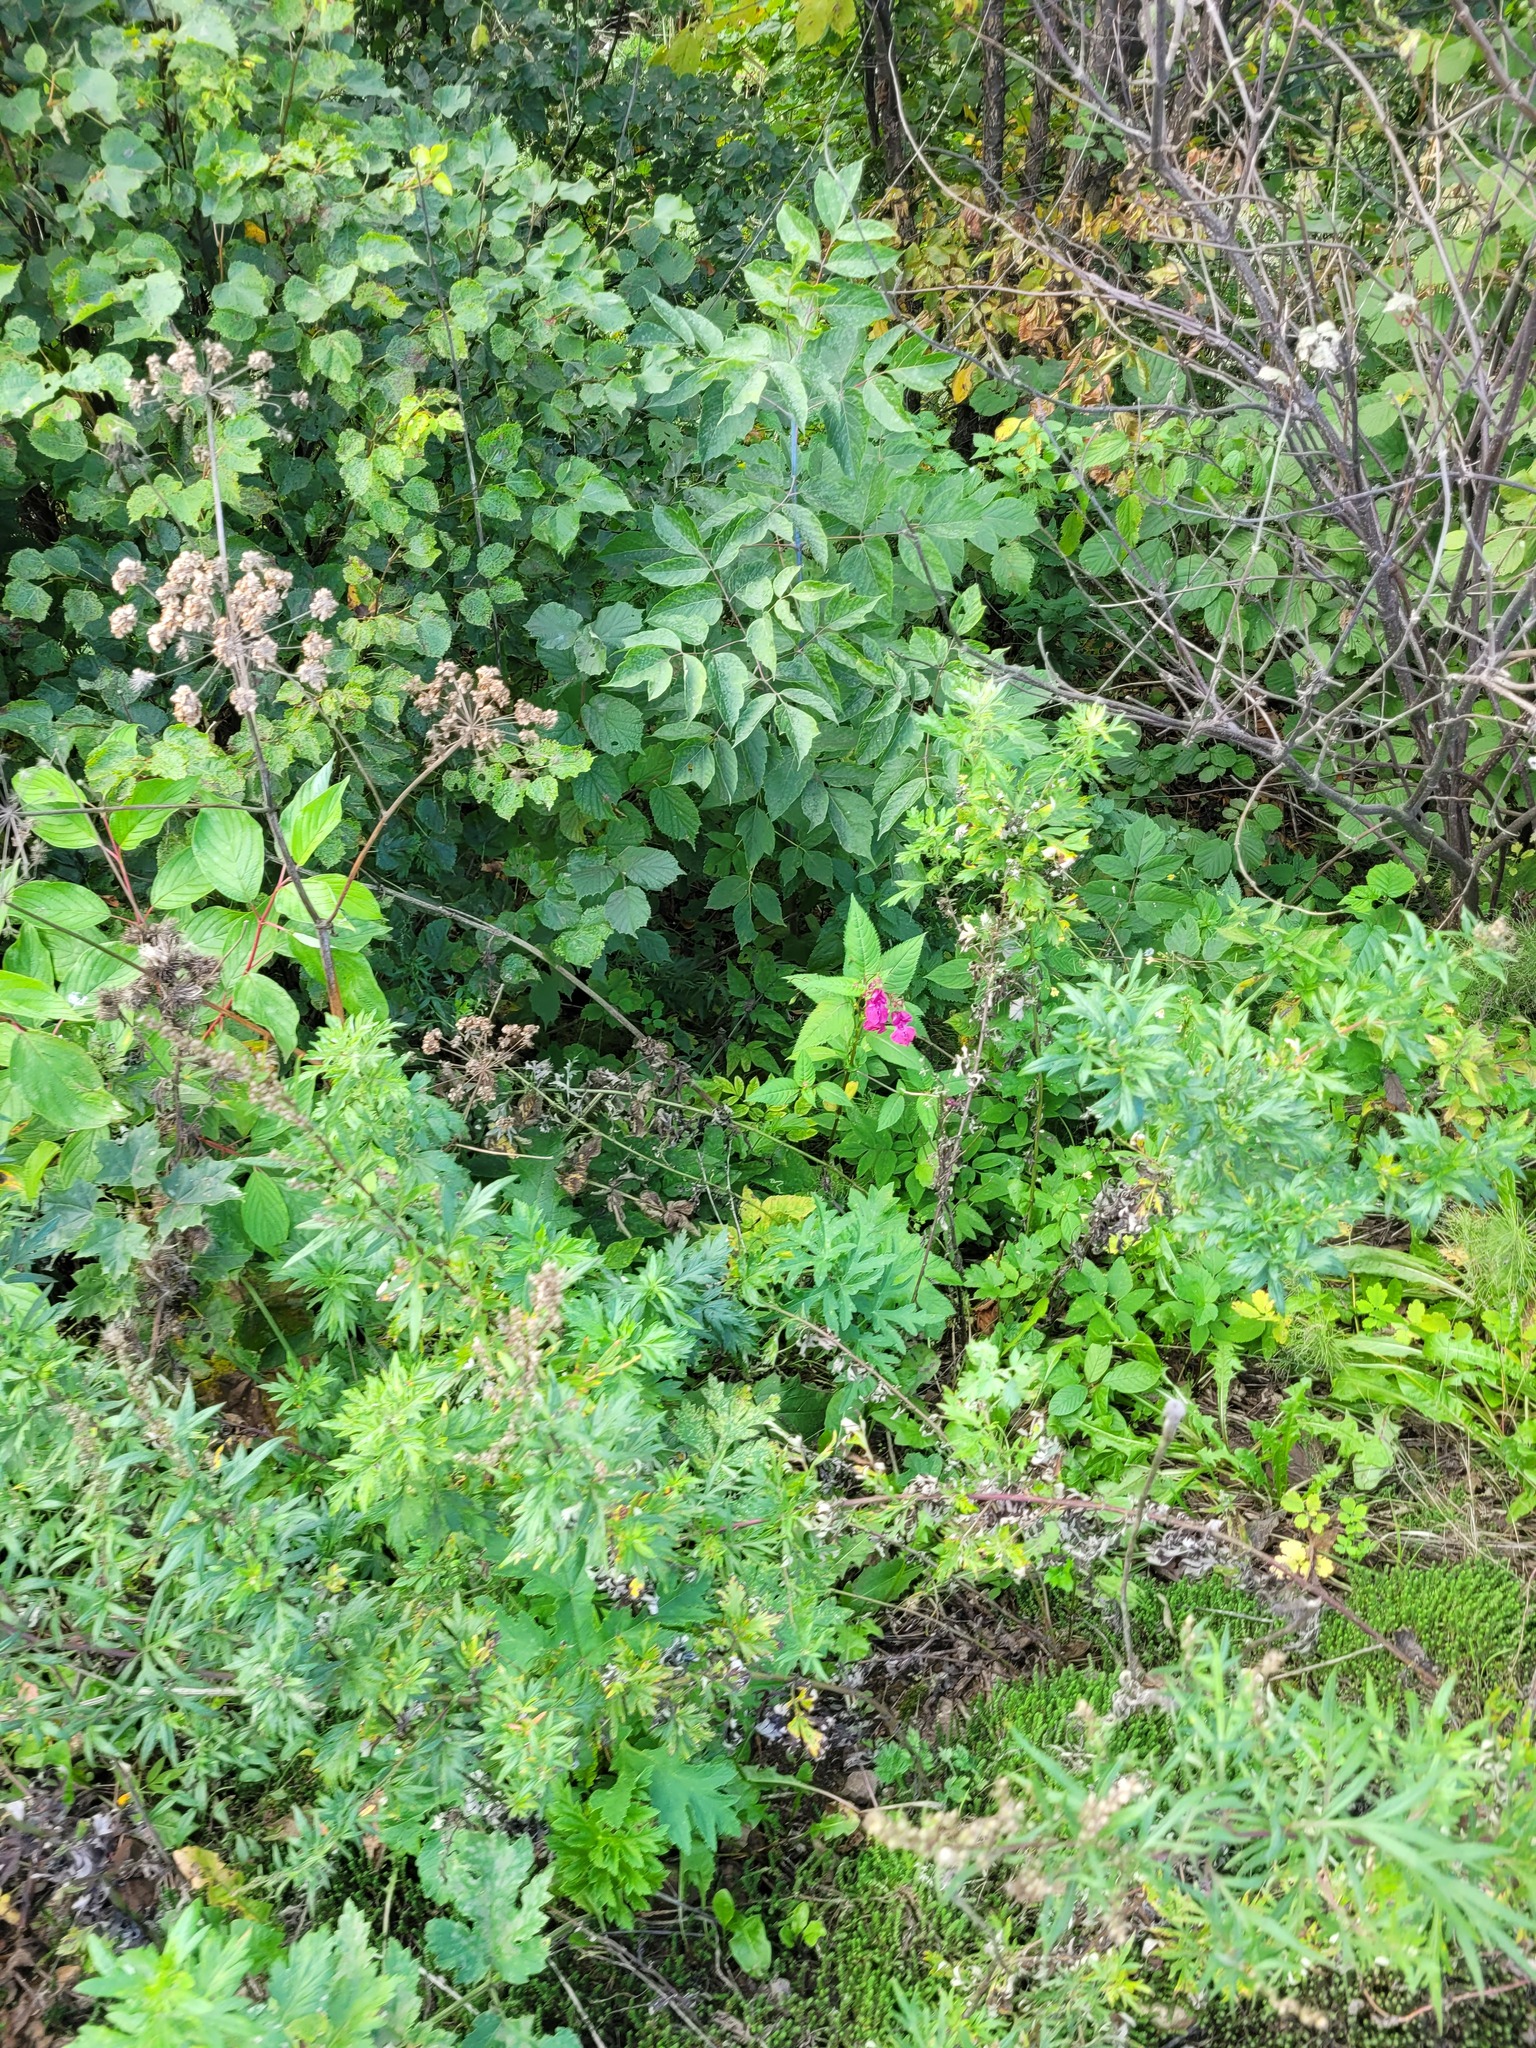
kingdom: Plantae
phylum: Tracheophyta
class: Magnoliopsida
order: Ericales
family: Balsaminaceae
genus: Impatiens
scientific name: Impatiens glandulifera
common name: Himalayan balsam
